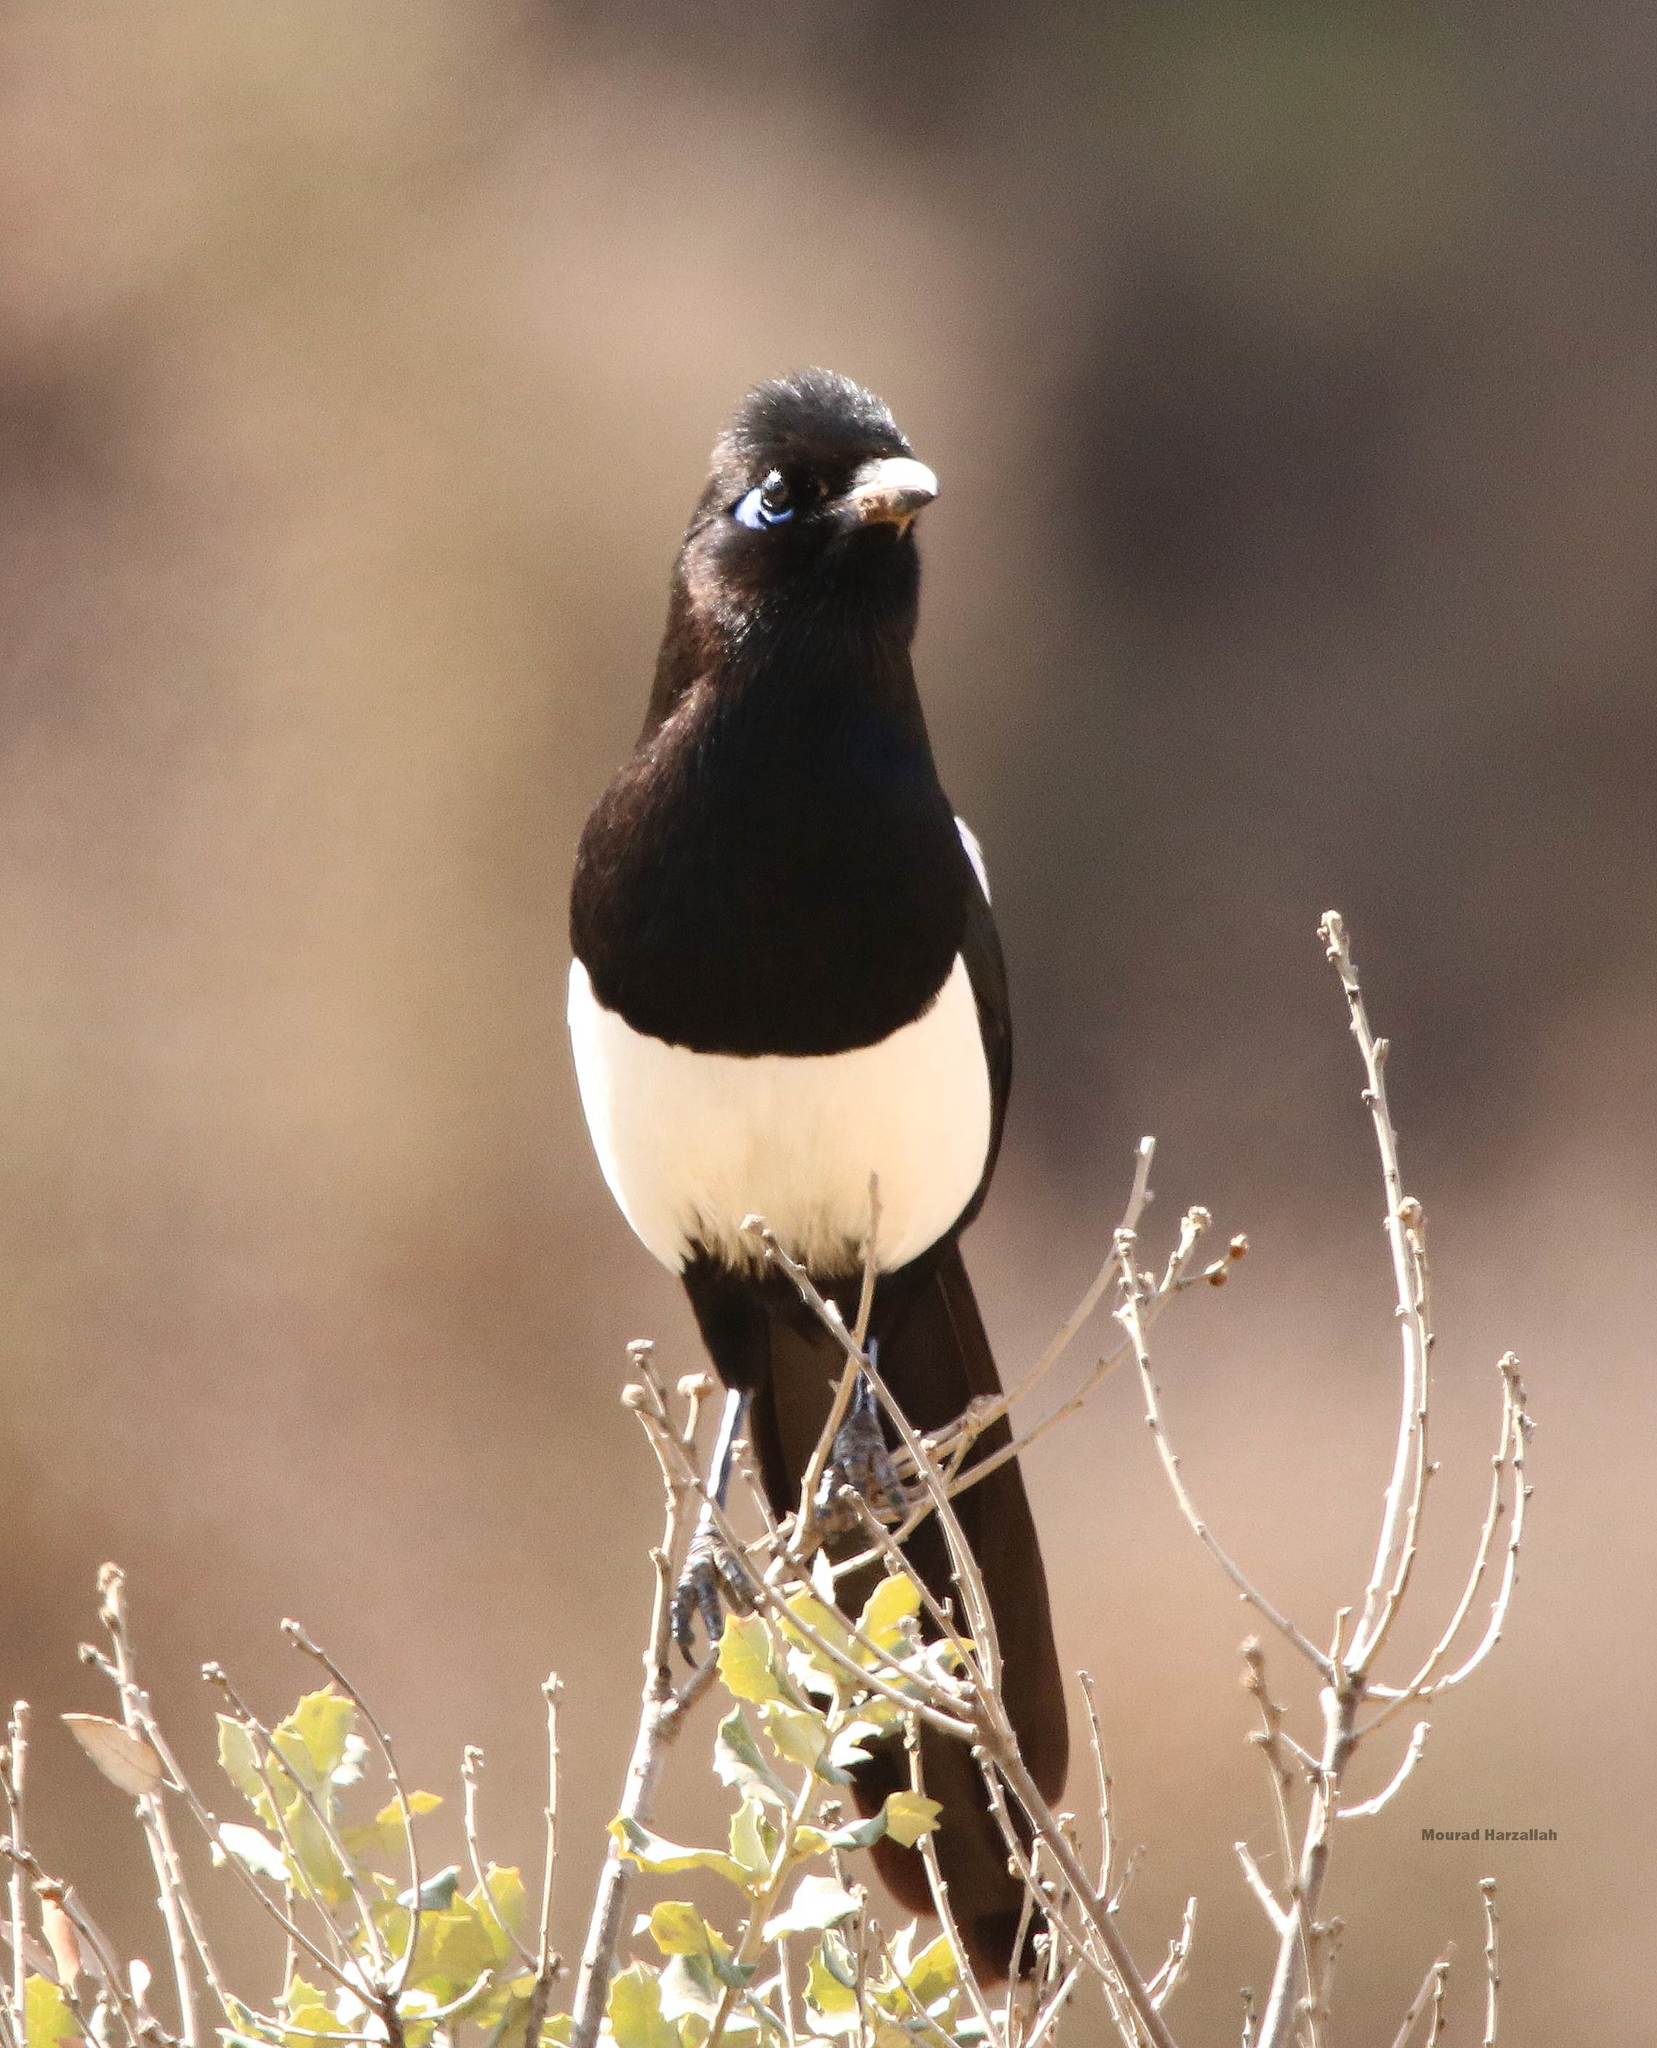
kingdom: Animalia
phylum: Chordata
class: Aves
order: Passeriformes
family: Corvidae
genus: Pica
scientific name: Pica mauritanica
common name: Maghreb magpie
